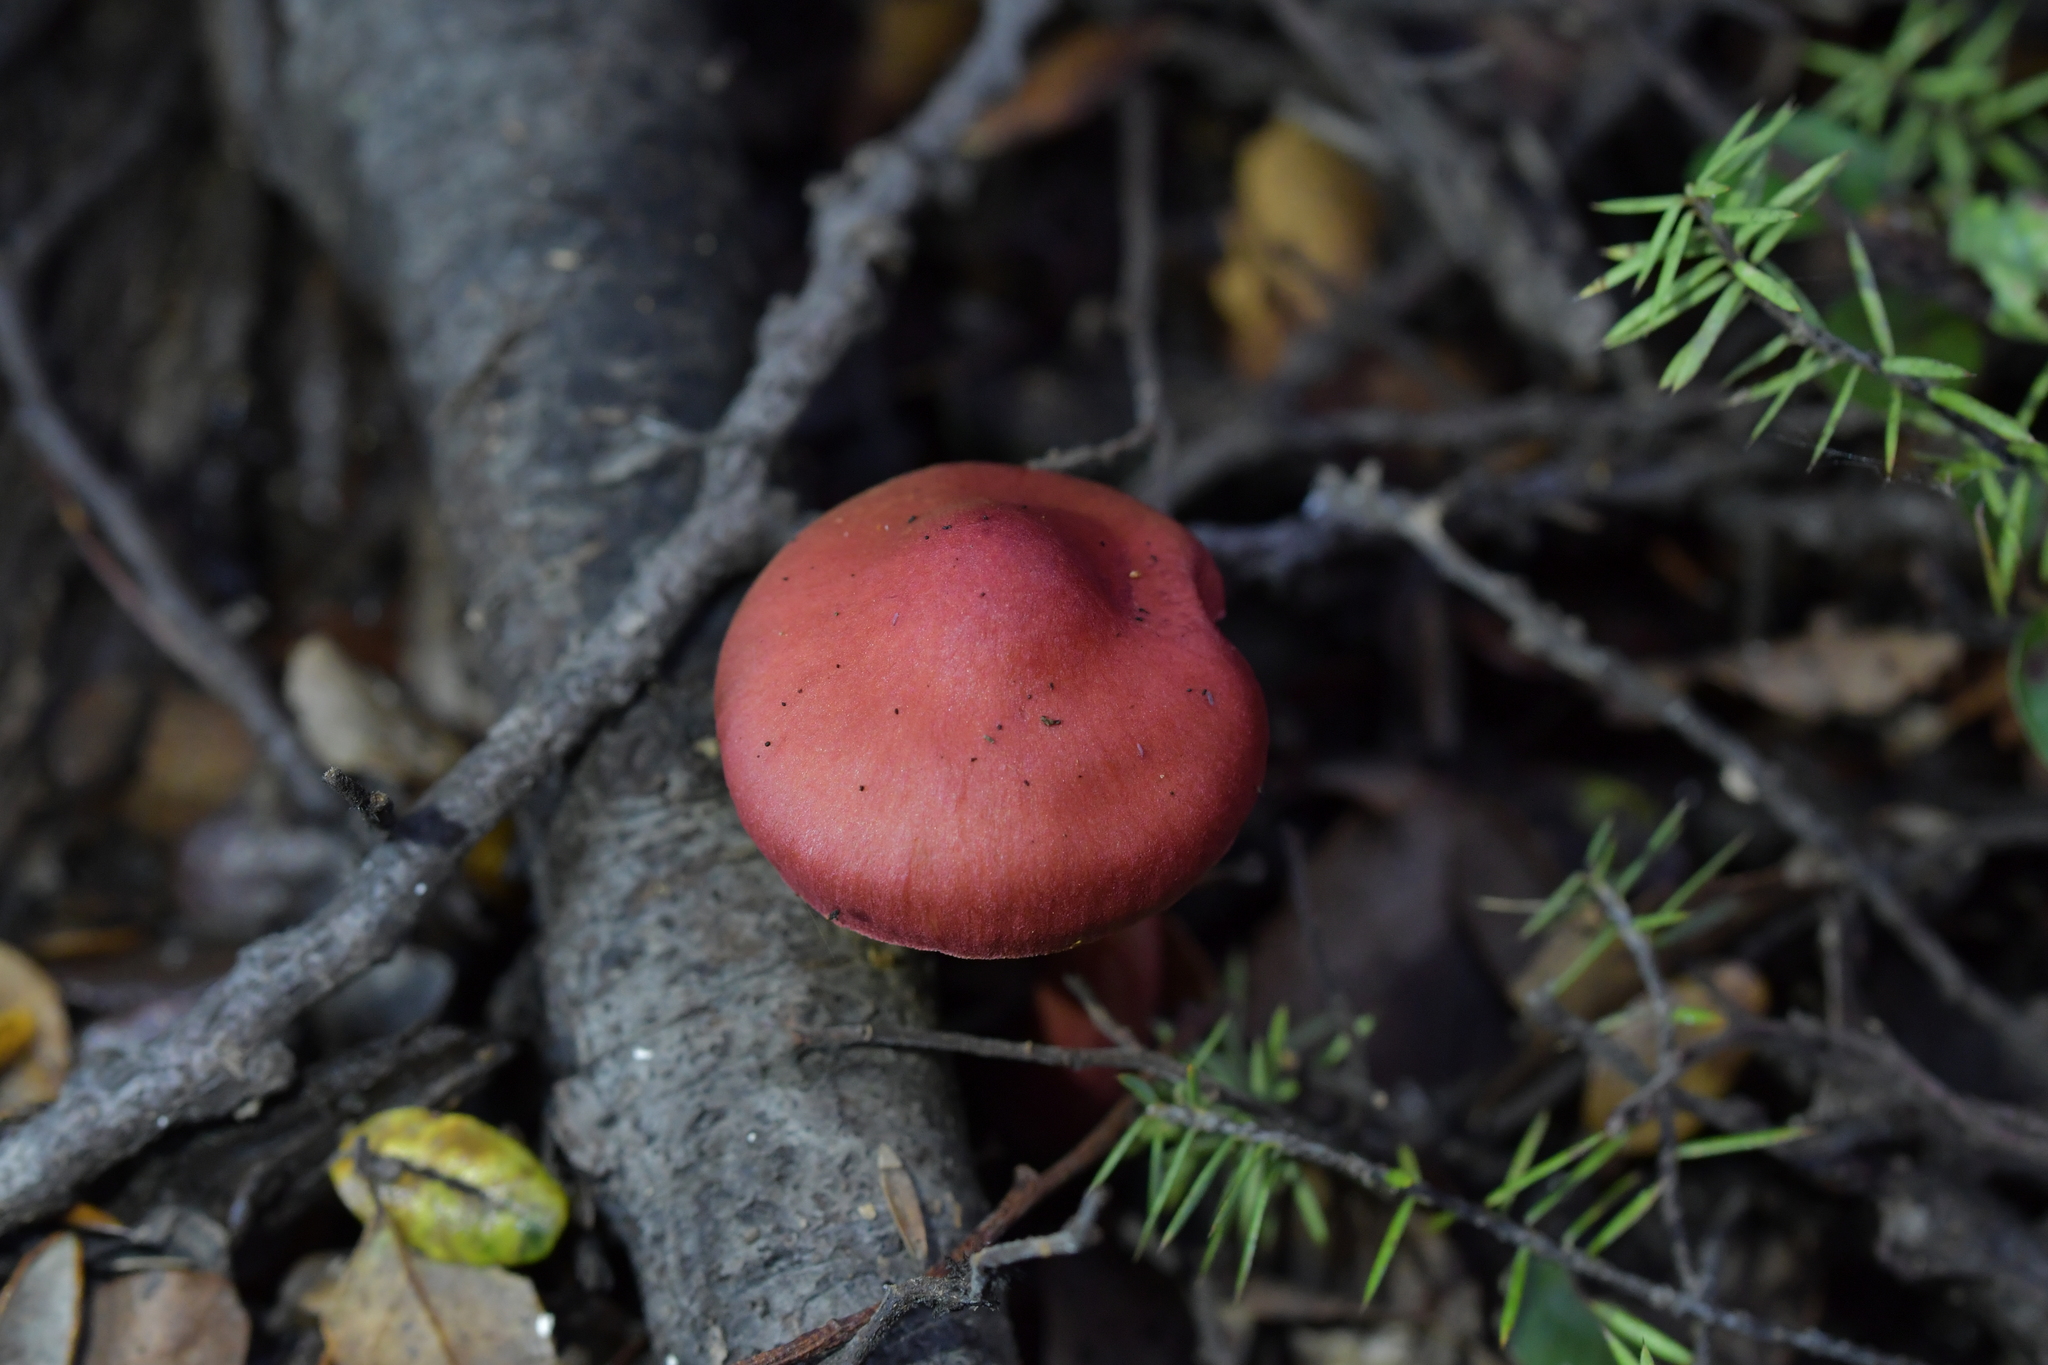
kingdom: Fungi
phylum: Basidiomycota
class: Agaricomycetes
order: Agaricales
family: Cortinariaceae
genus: Cortinarius
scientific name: Cortinarius cardinalis
